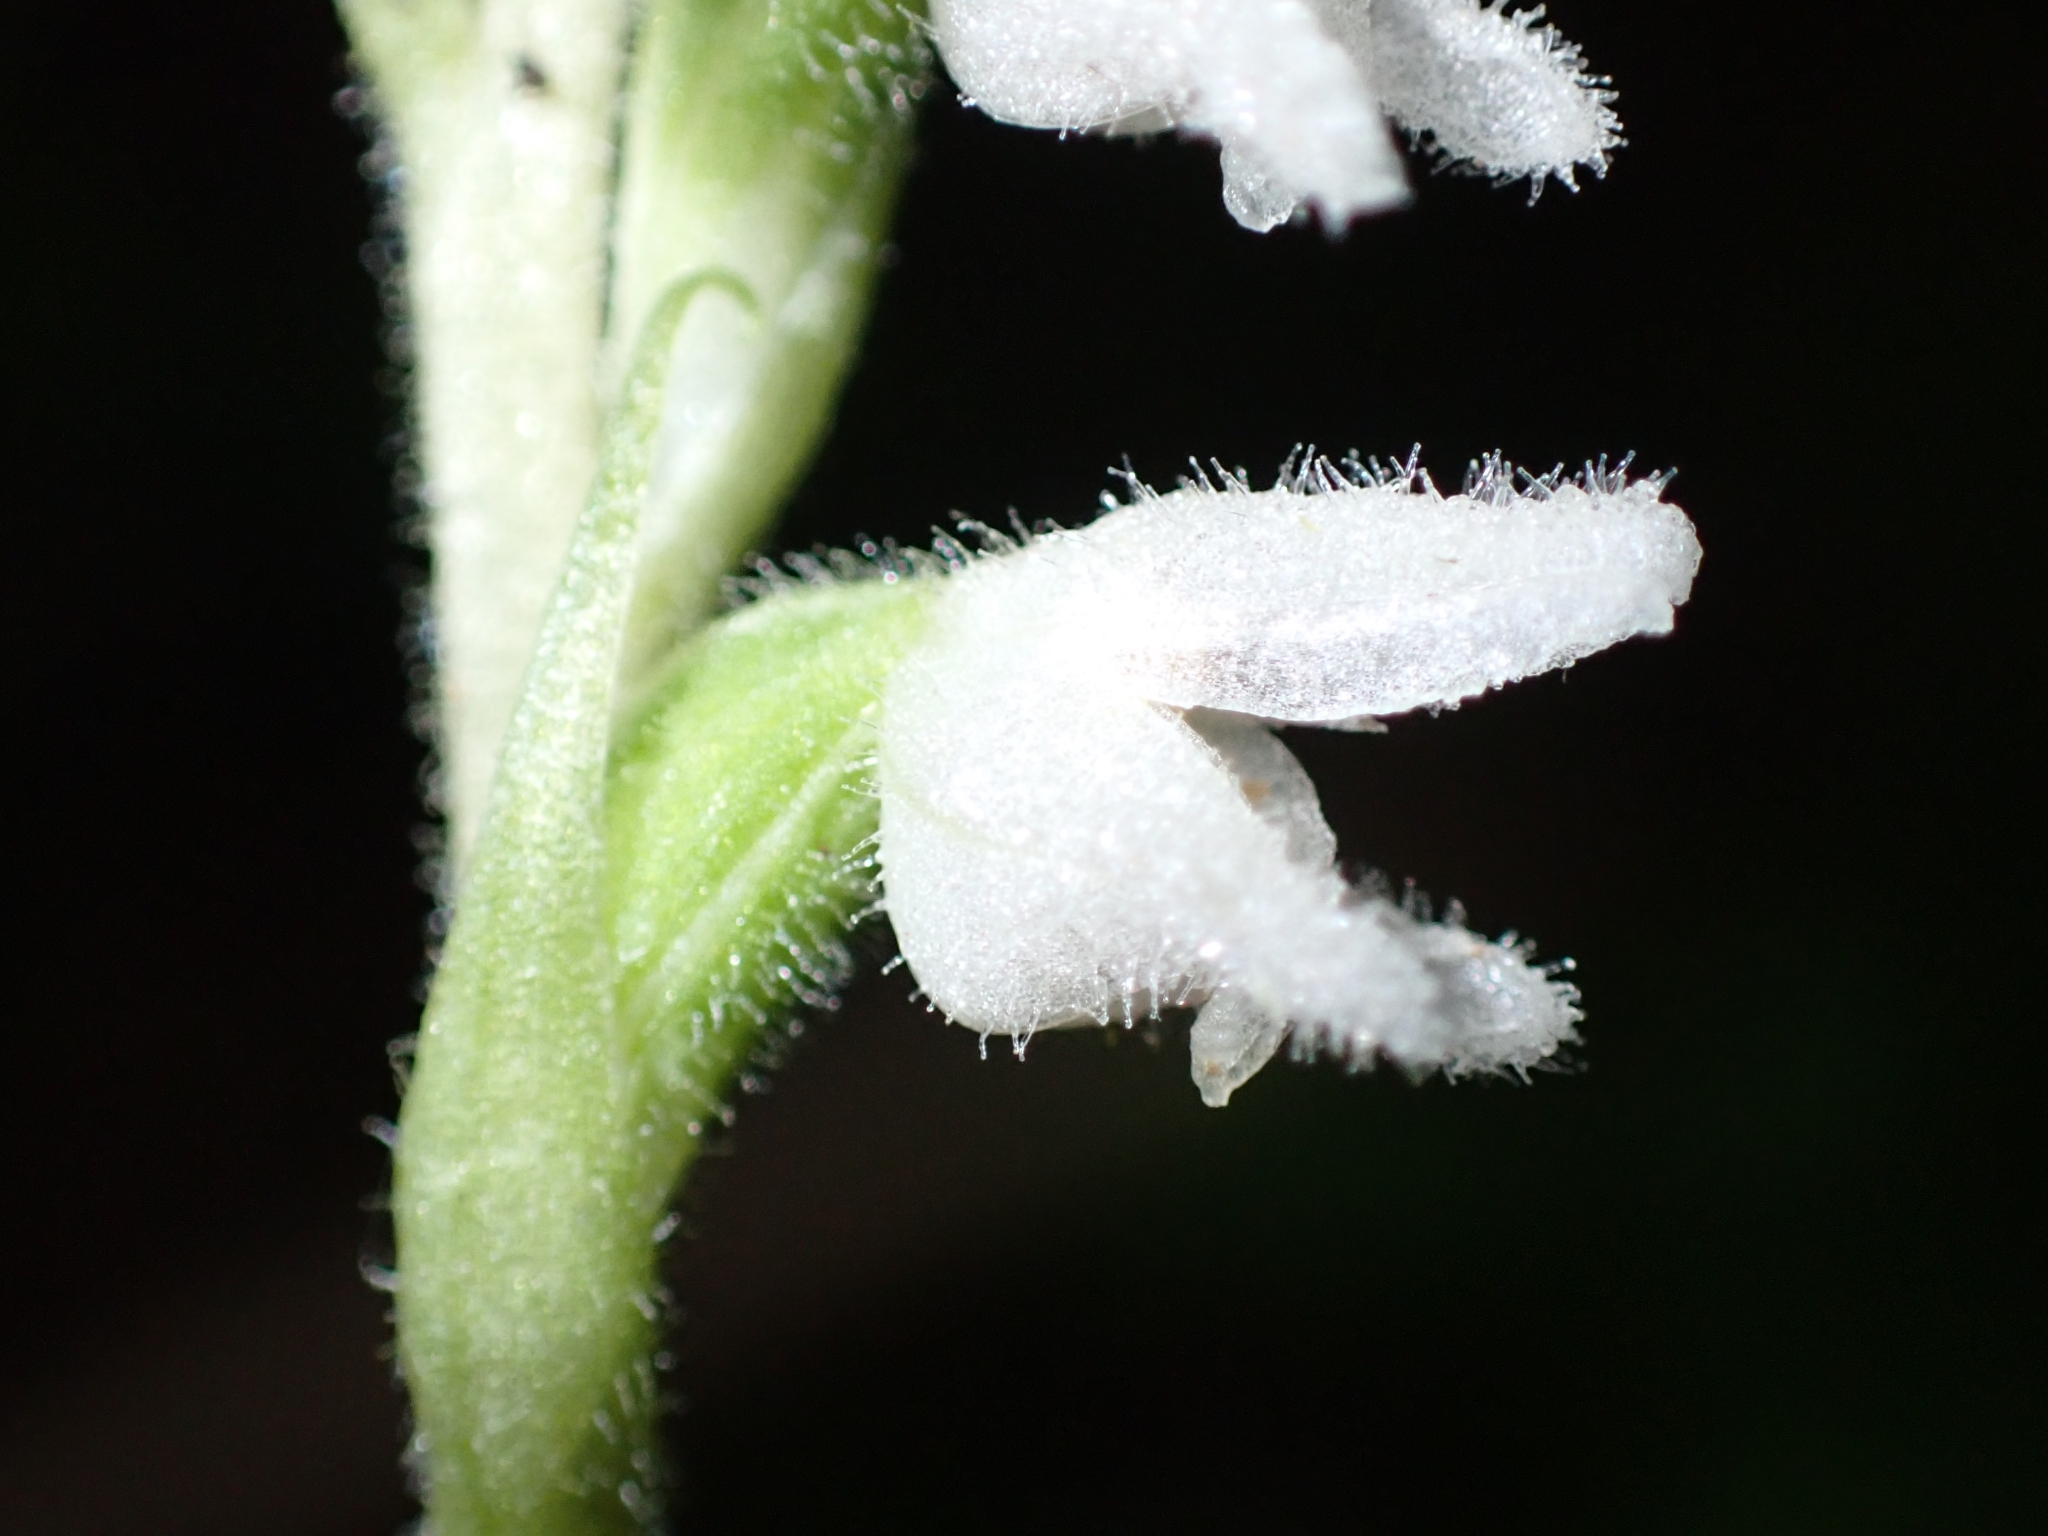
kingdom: Plantae
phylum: Tracheophyta
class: Liliopsida
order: Asparagales
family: Orchidaceae
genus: Goodyera
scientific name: Goodyera repens
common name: Creeping lady's-tresses
